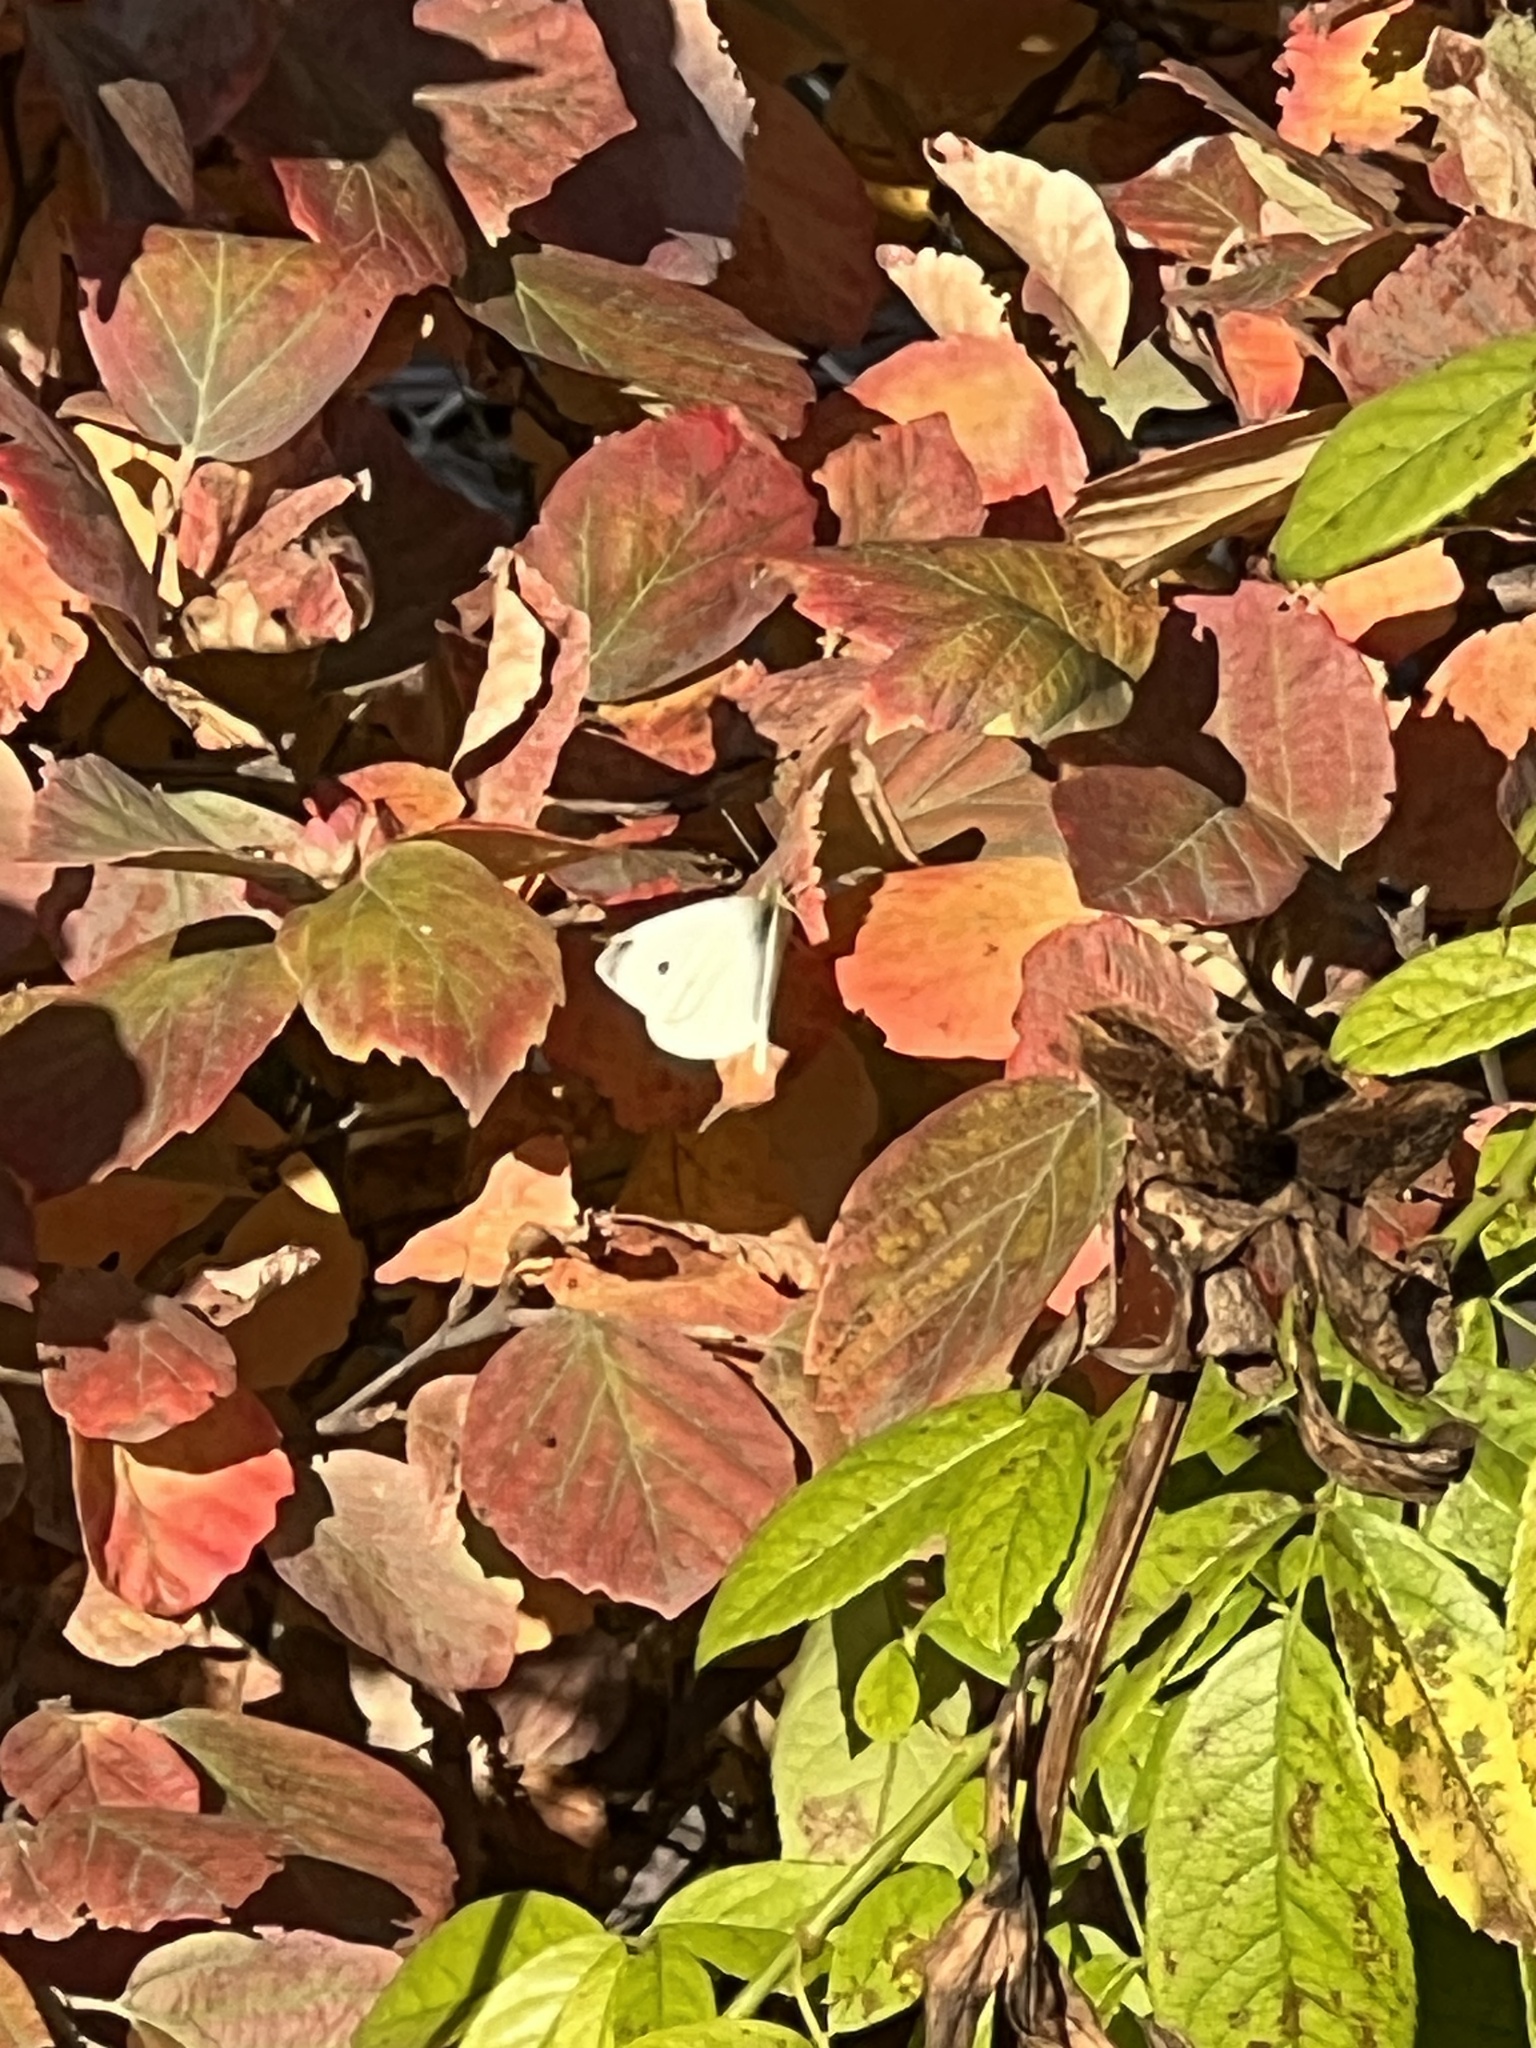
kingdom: Animalia
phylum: Arthropoda
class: Insecta
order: Lepidoptera
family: Pieridae
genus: Pieris
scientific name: Pieris rapae
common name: Small white
